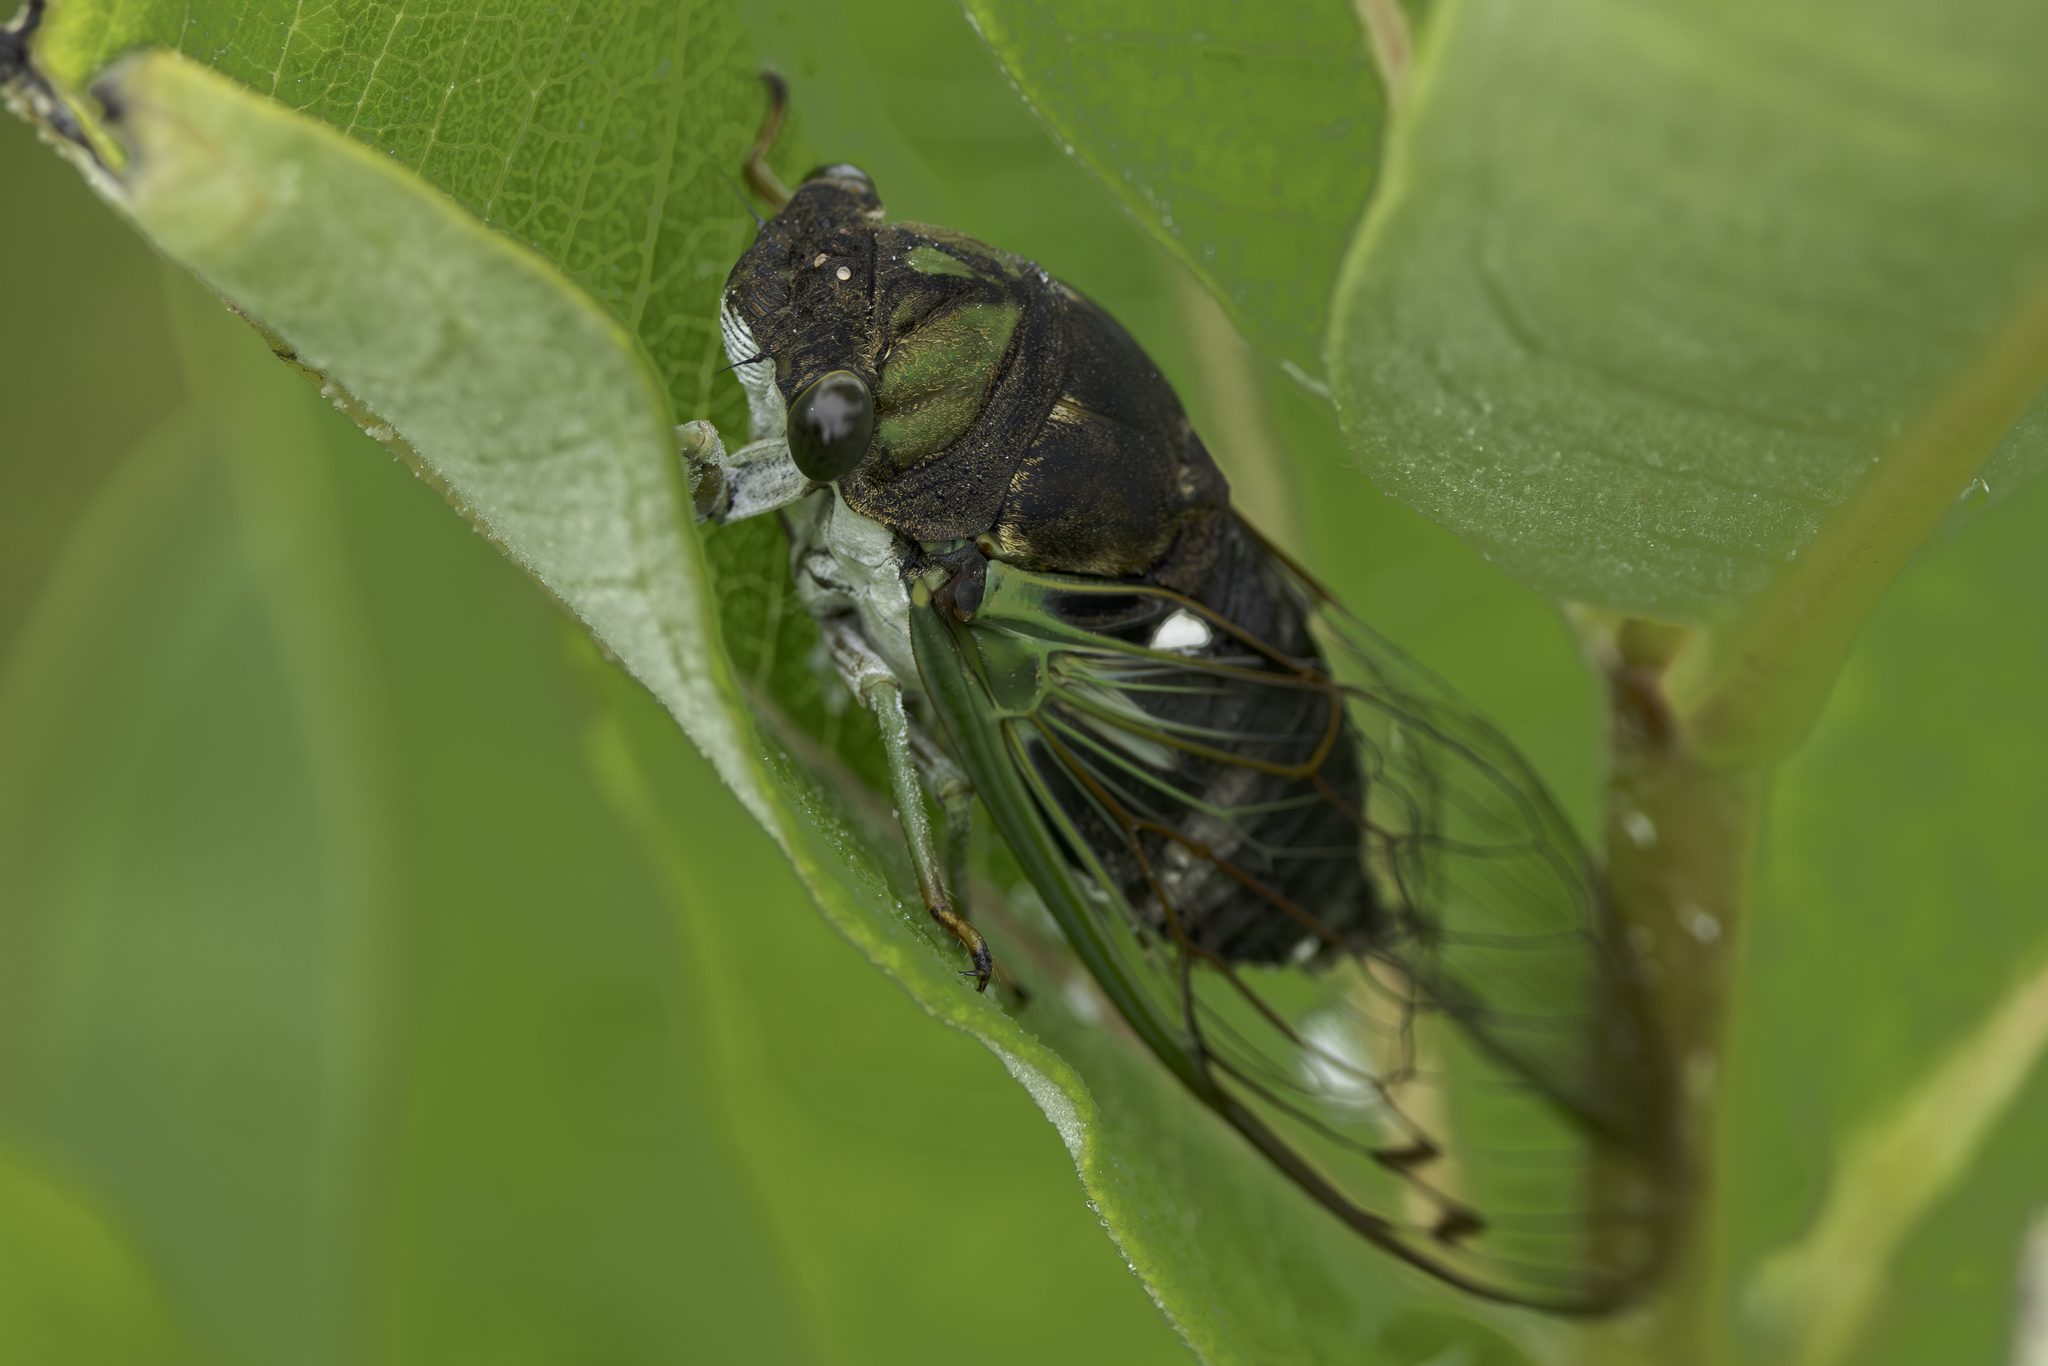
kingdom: Animalia
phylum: Arthropoda
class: Insecta
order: Hemiptera
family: Cicadidae
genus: Neotibicen
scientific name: Neotibicen tibicen
